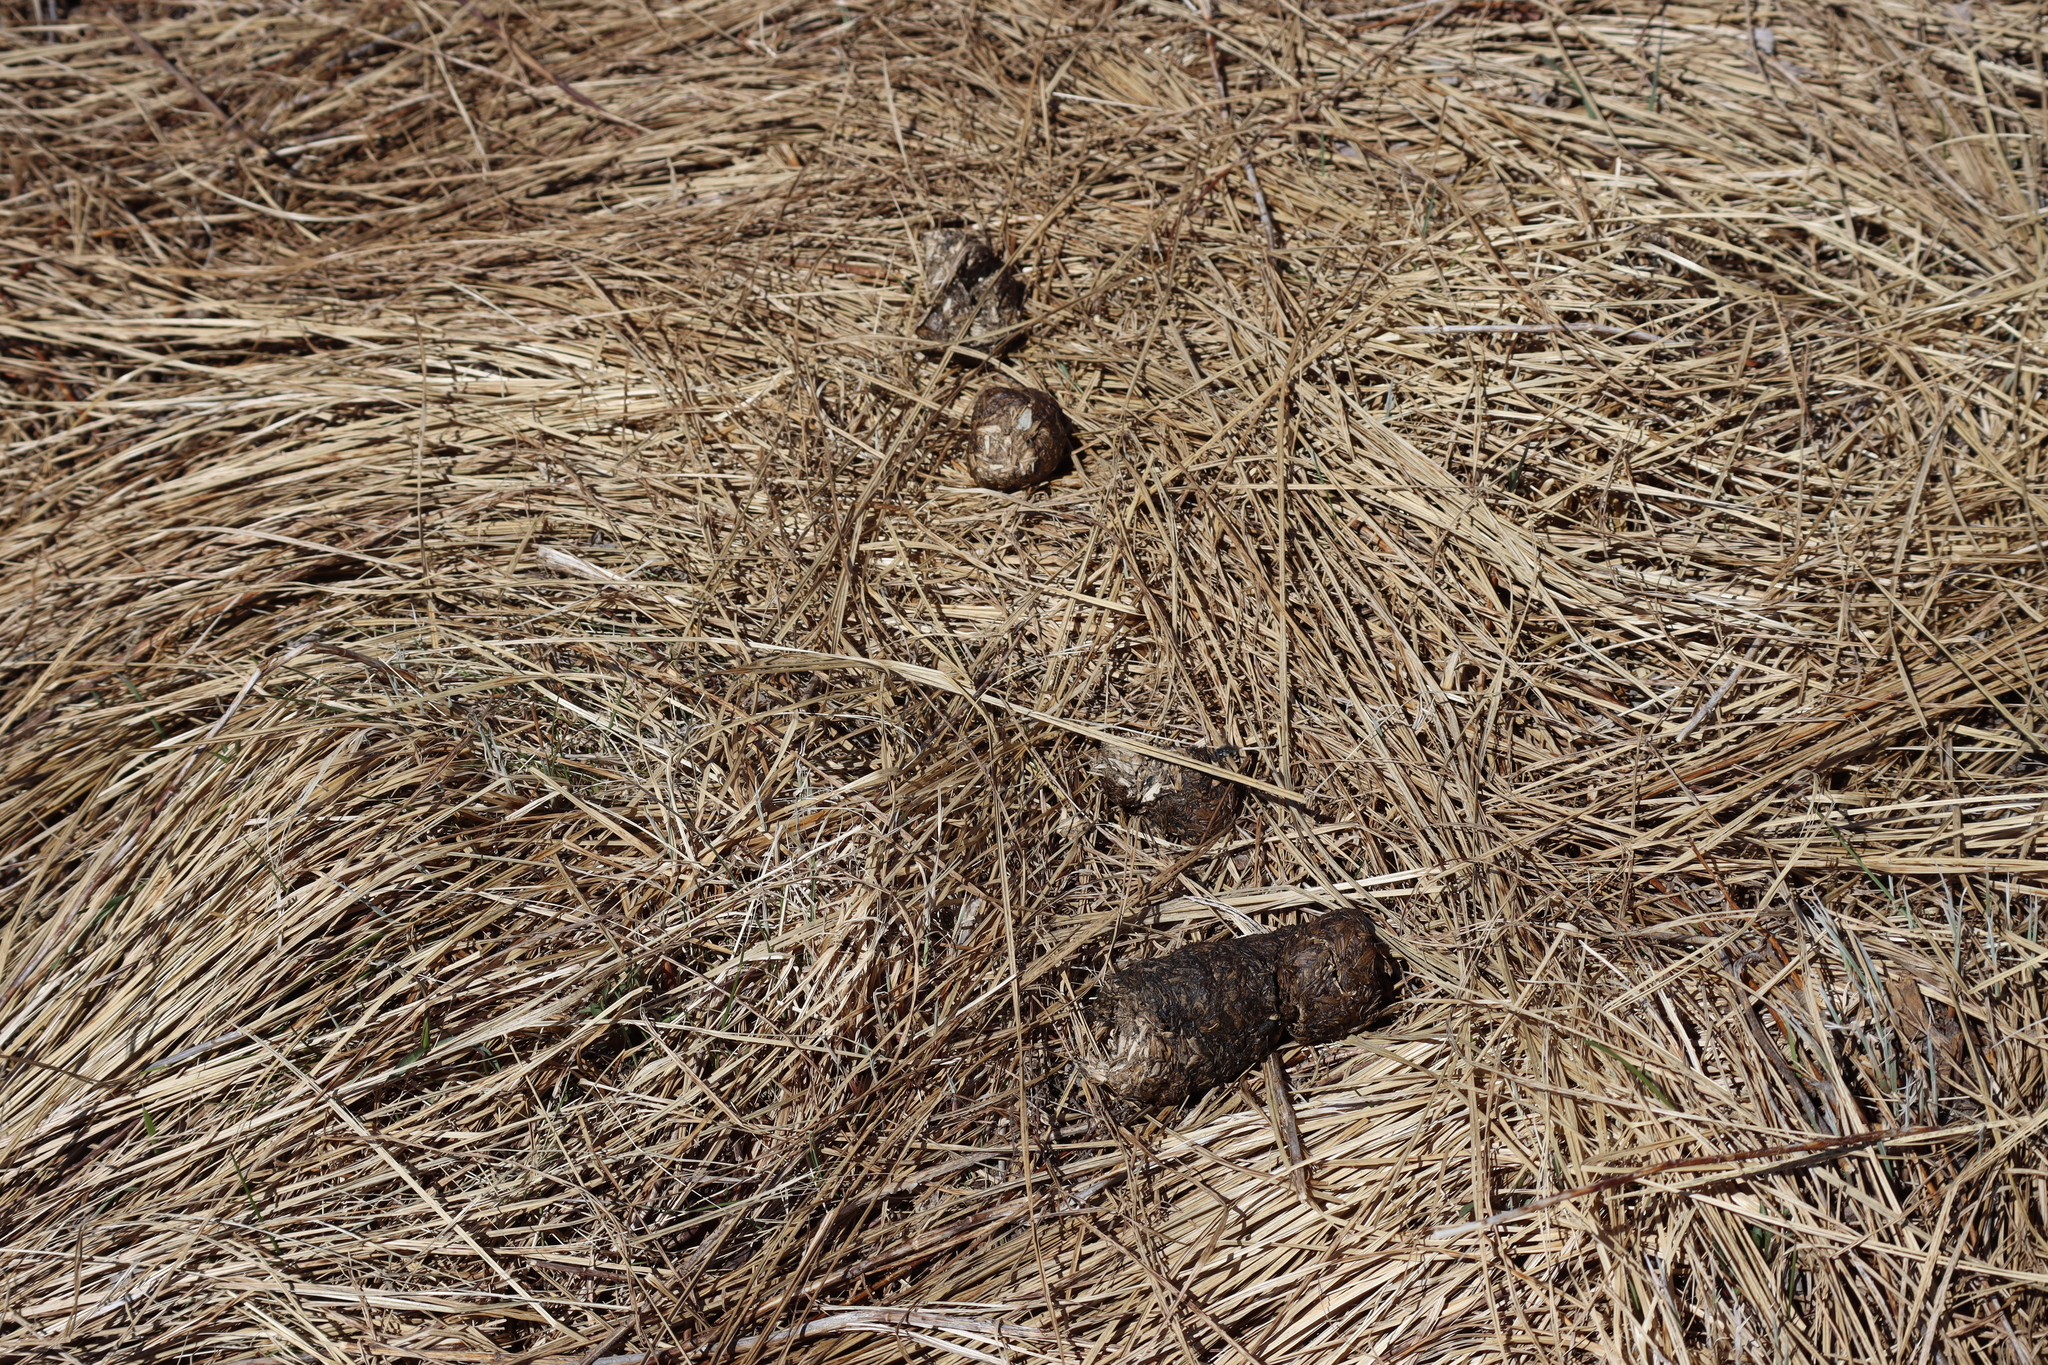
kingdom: Animalia
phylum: Chordata
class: Mammalia
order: Carnivora
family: Ursidae
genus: Ursus
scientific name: Ursus americanus
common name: American black bear
